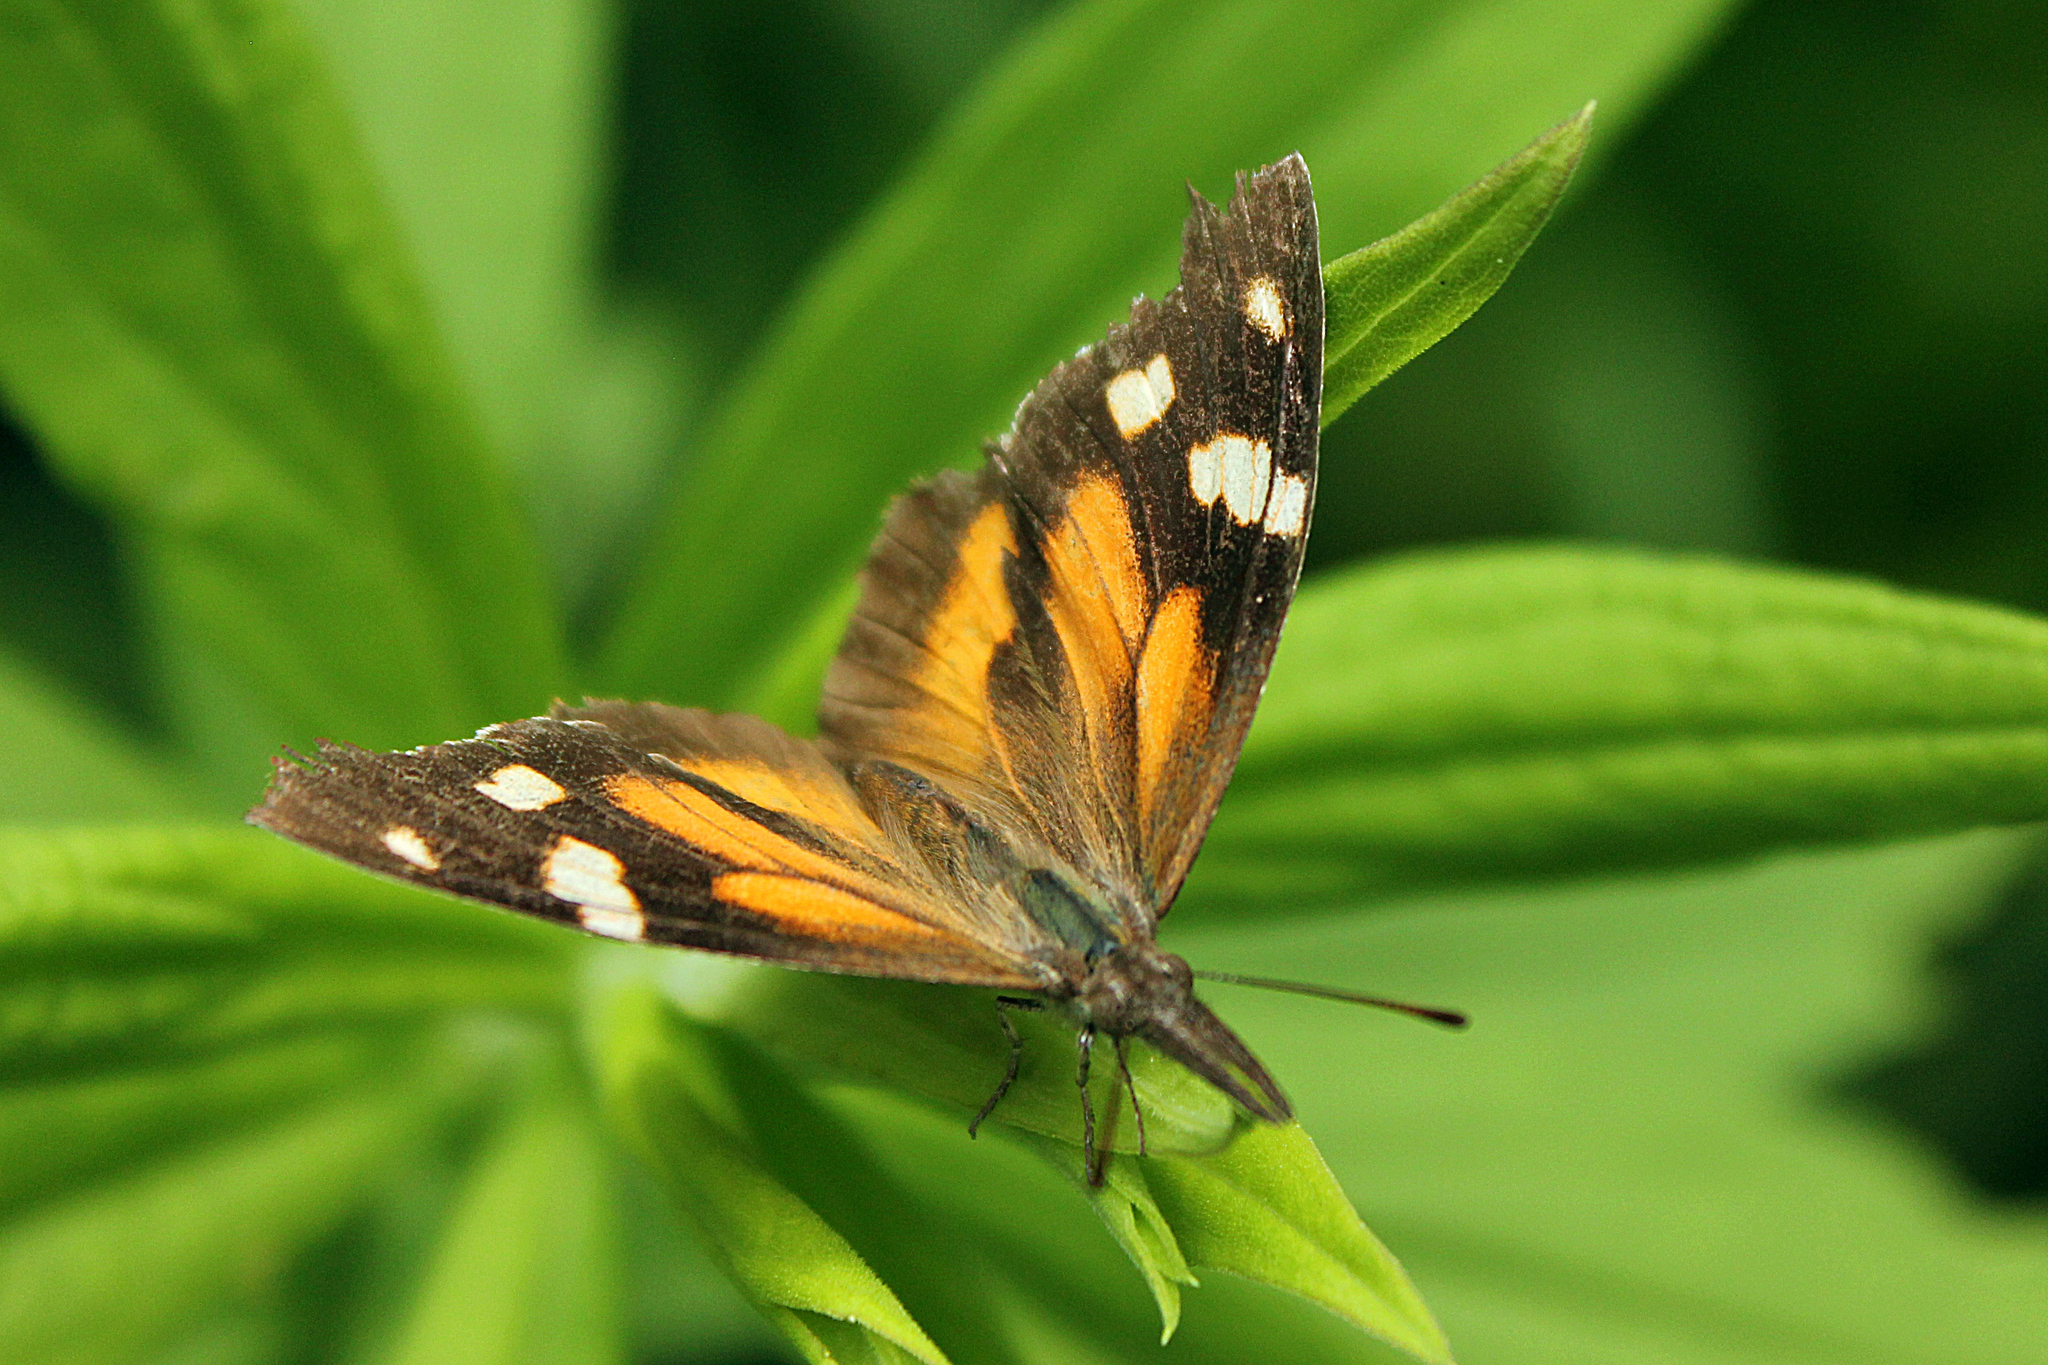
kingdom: Animalia
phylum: Arthropoda
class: Insecta
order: Lepidoptera
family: Nymphalidae
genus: Libytheana
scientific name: Libytheana carinenta
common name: American snout
